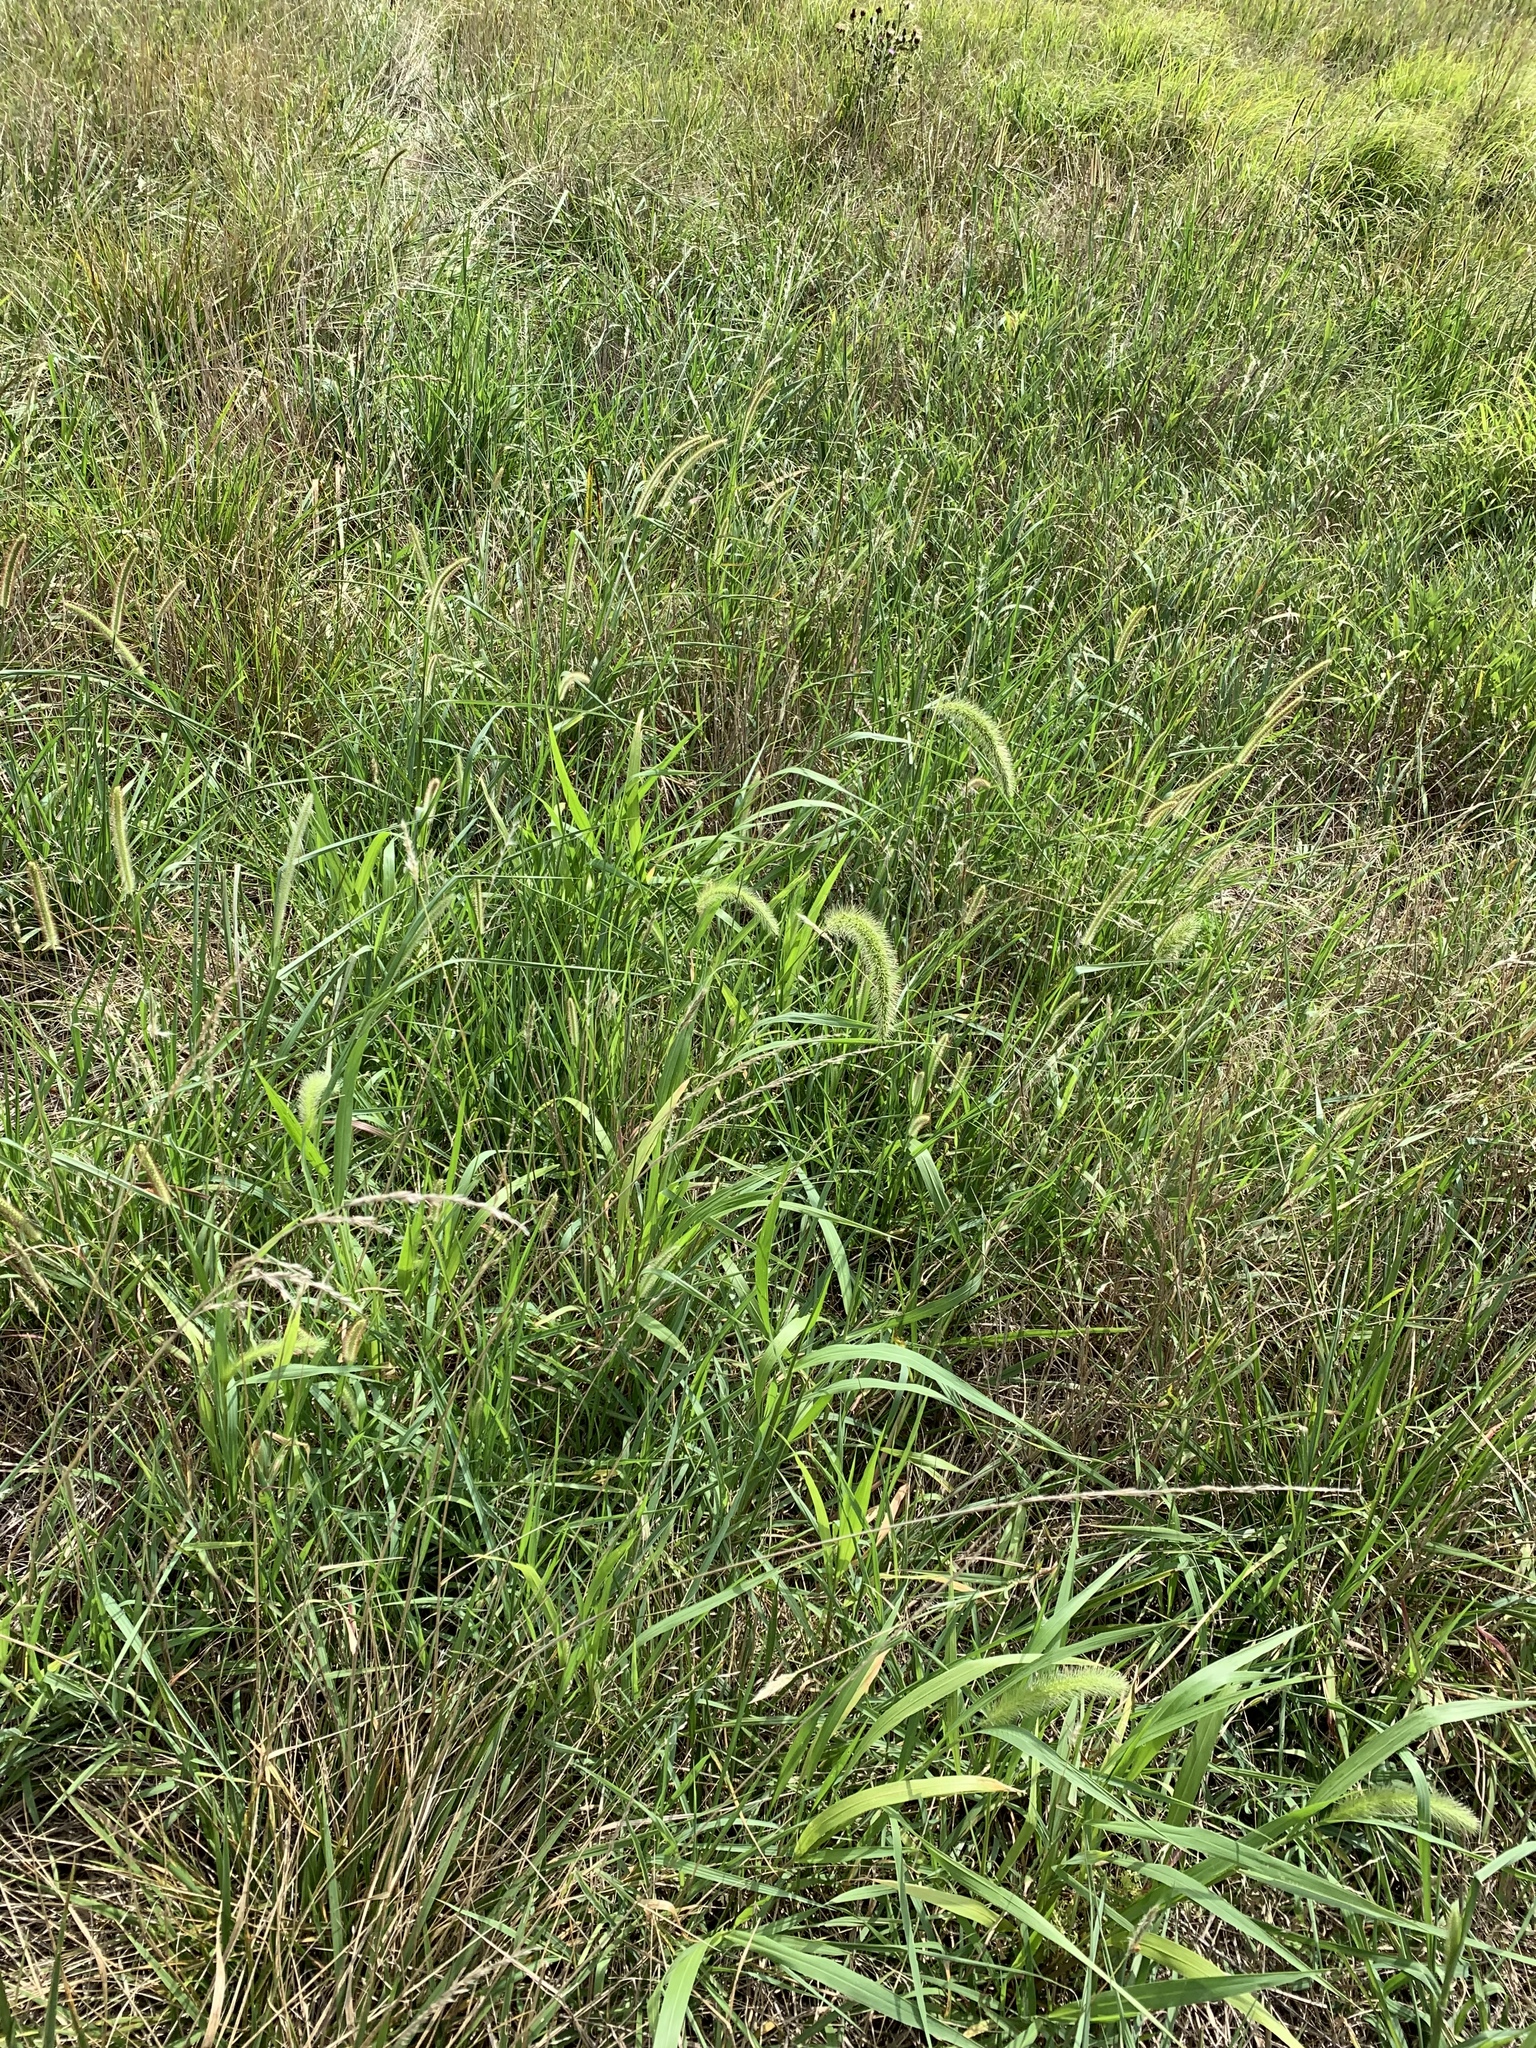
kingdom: Plantae
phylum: Tracheophyta
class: Liliopsida
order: Poales
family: Poaceae
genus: Setaria
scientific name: Setaria faberi
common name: Nodding bristle-grass
